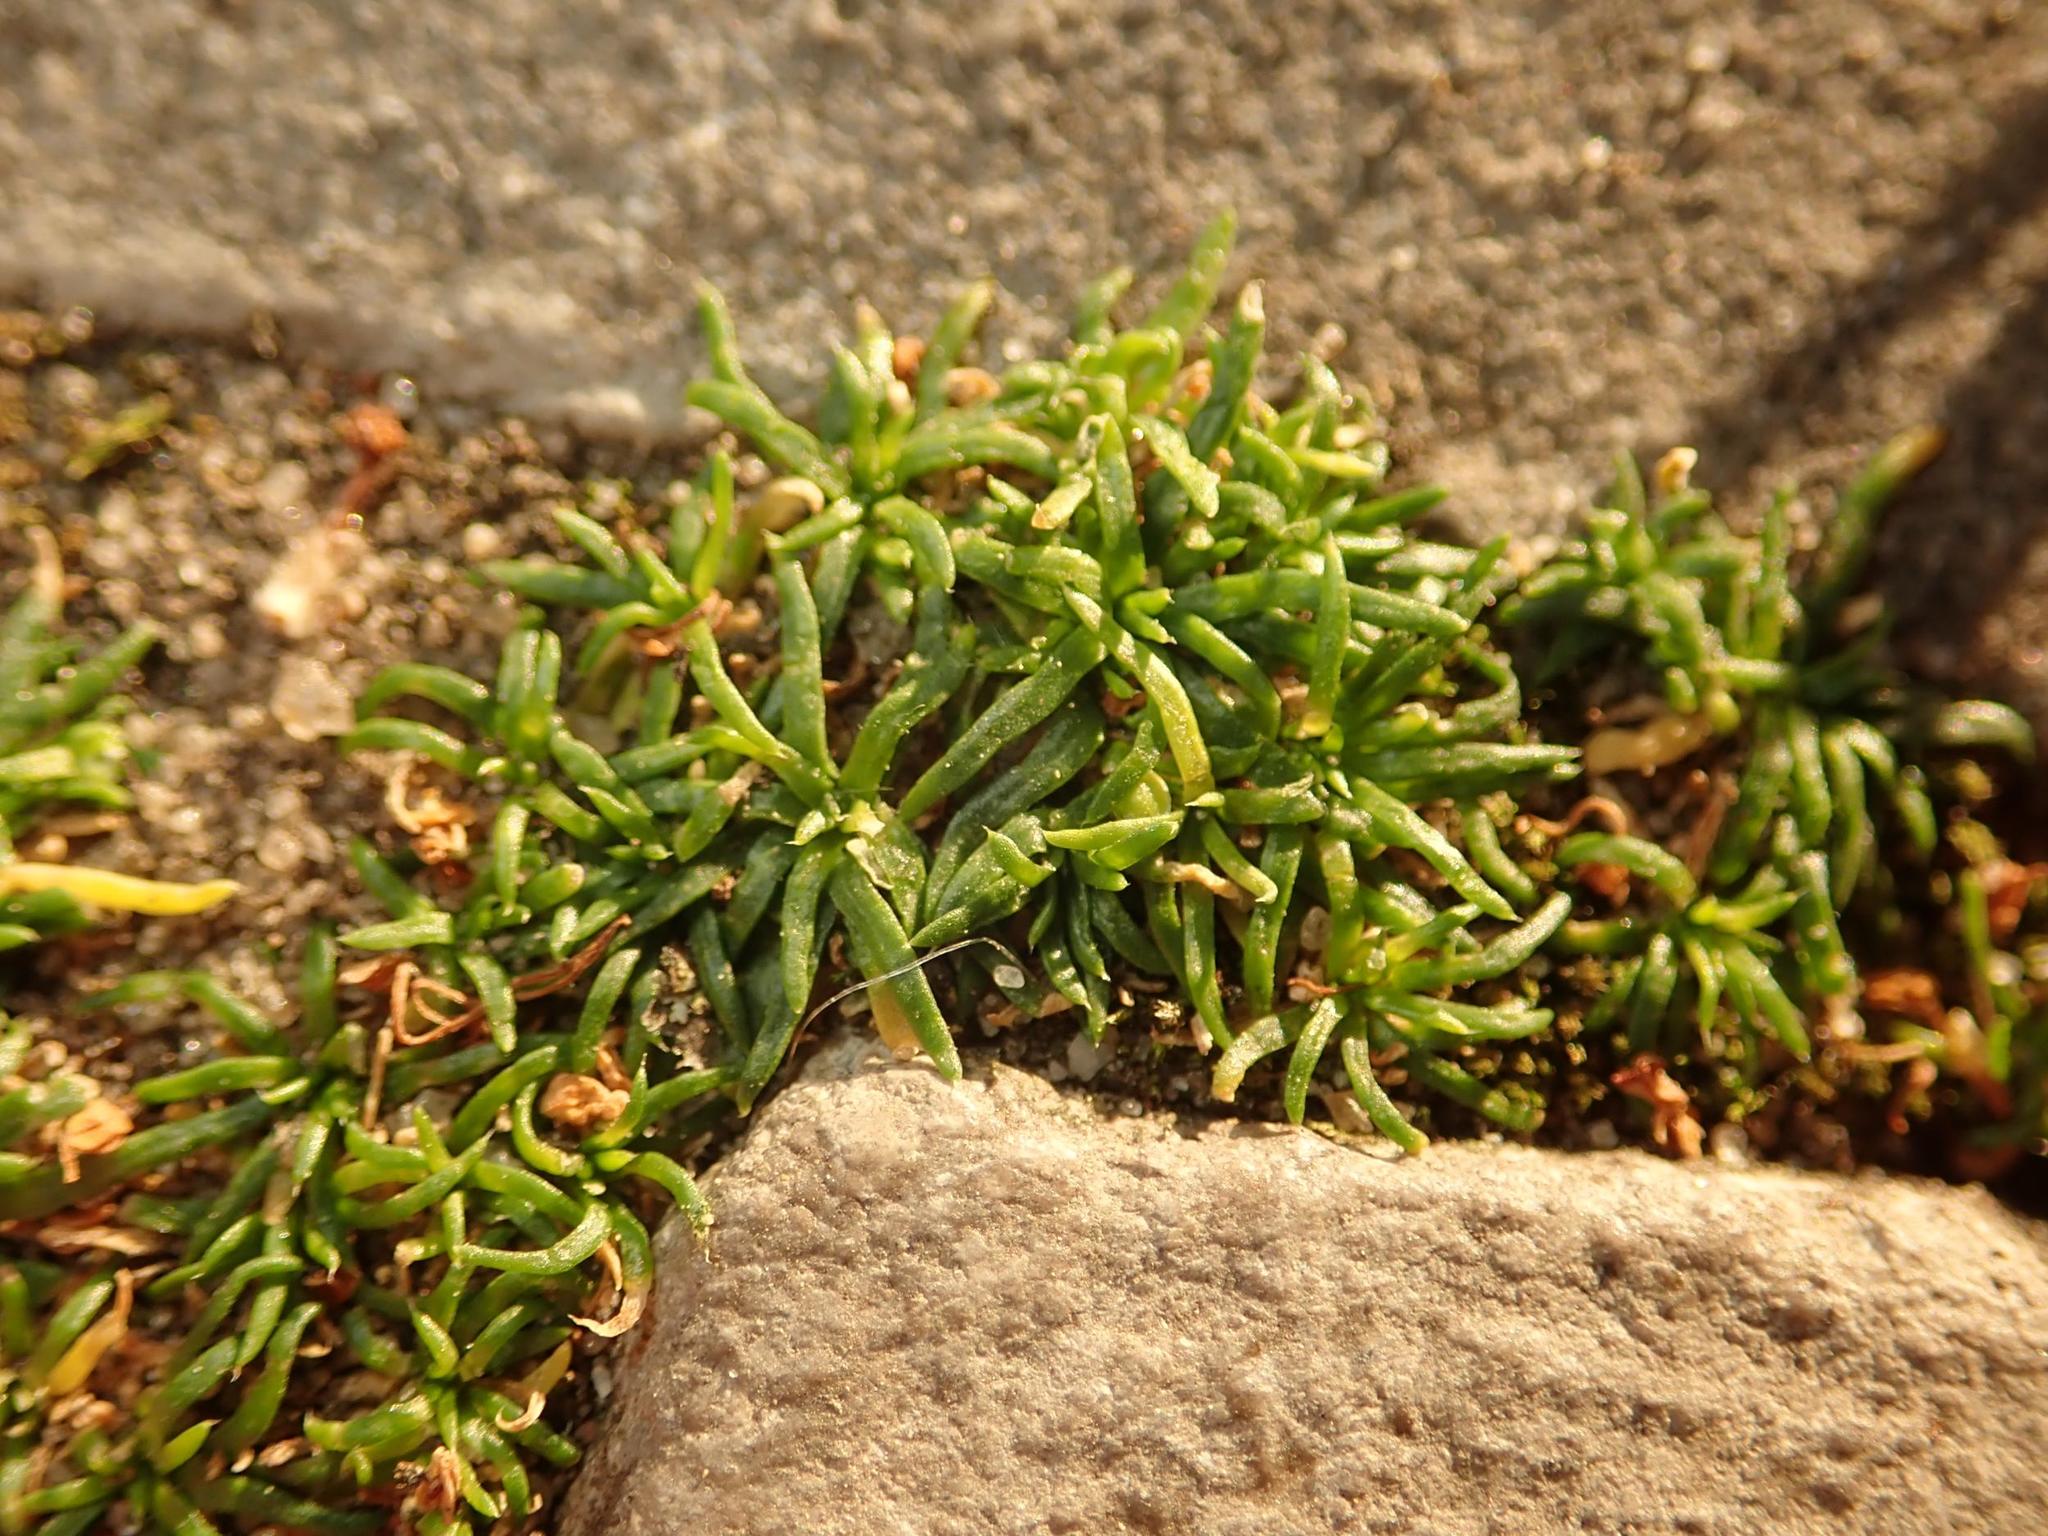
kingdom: Plantae
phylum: Tracheophyta
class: Magnoliopsida
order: Caryophyllales
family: Caryophyllaceae
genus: Sagina
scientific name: Sagina procumbens
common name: Procumbent pearlwort
